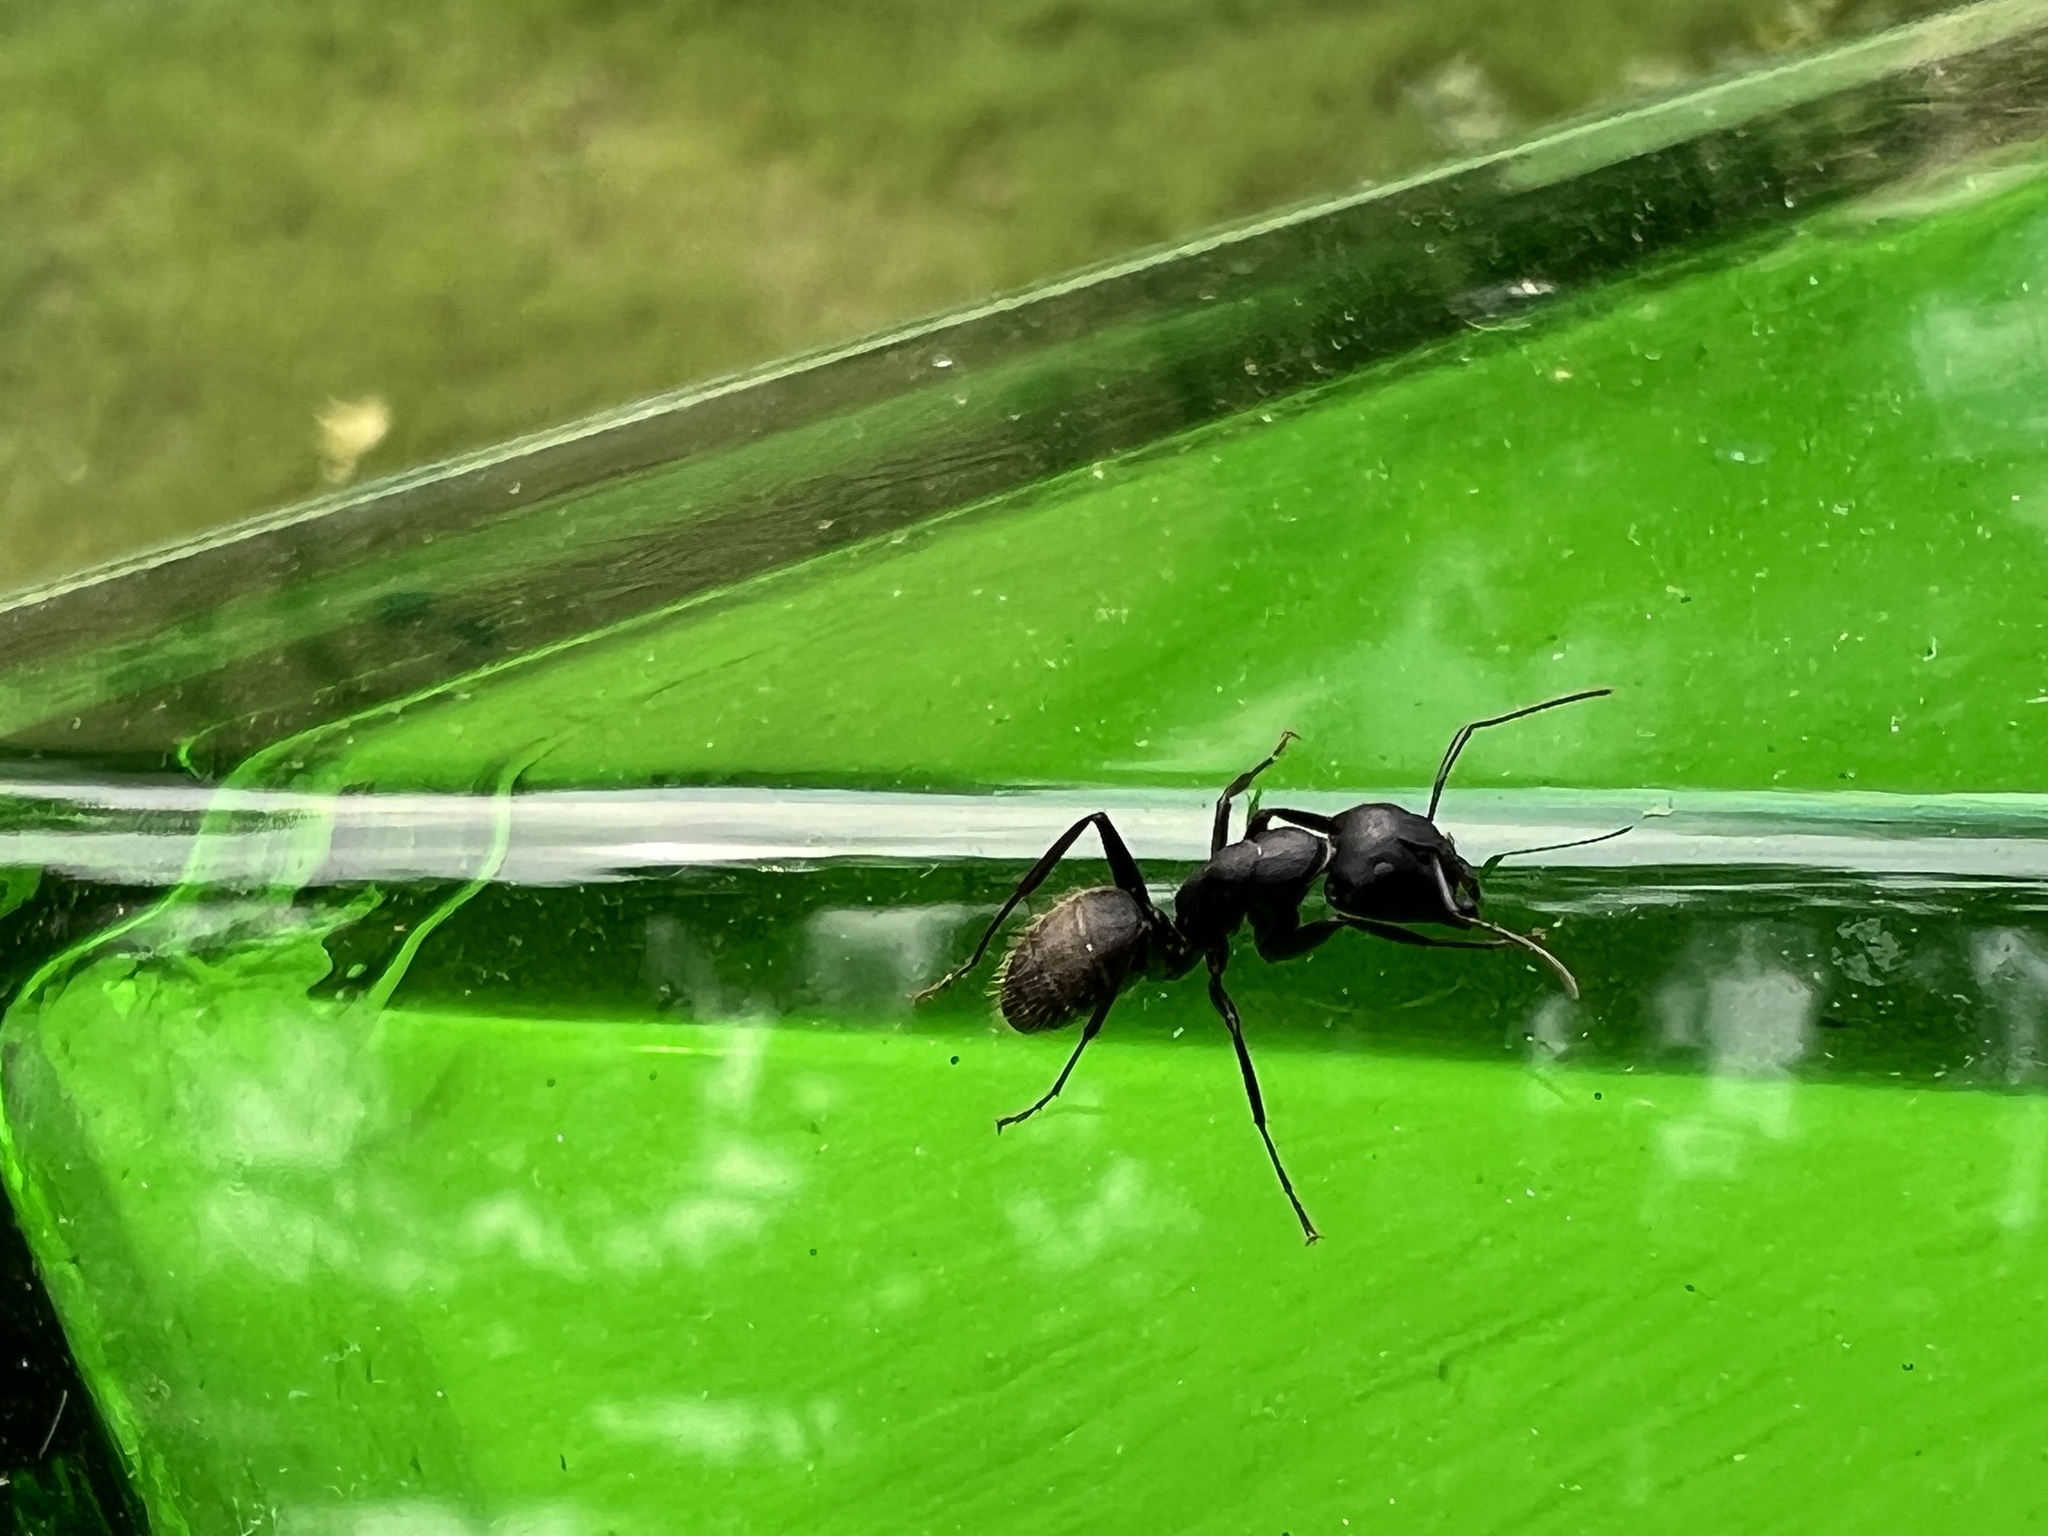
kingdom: Animalia
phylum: Arthropoda
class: Insecta
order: Hymenoptera
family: Formicidae
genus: Camponotus
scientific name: Camponotus pennsylvanicus
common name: Black carpenter ant
